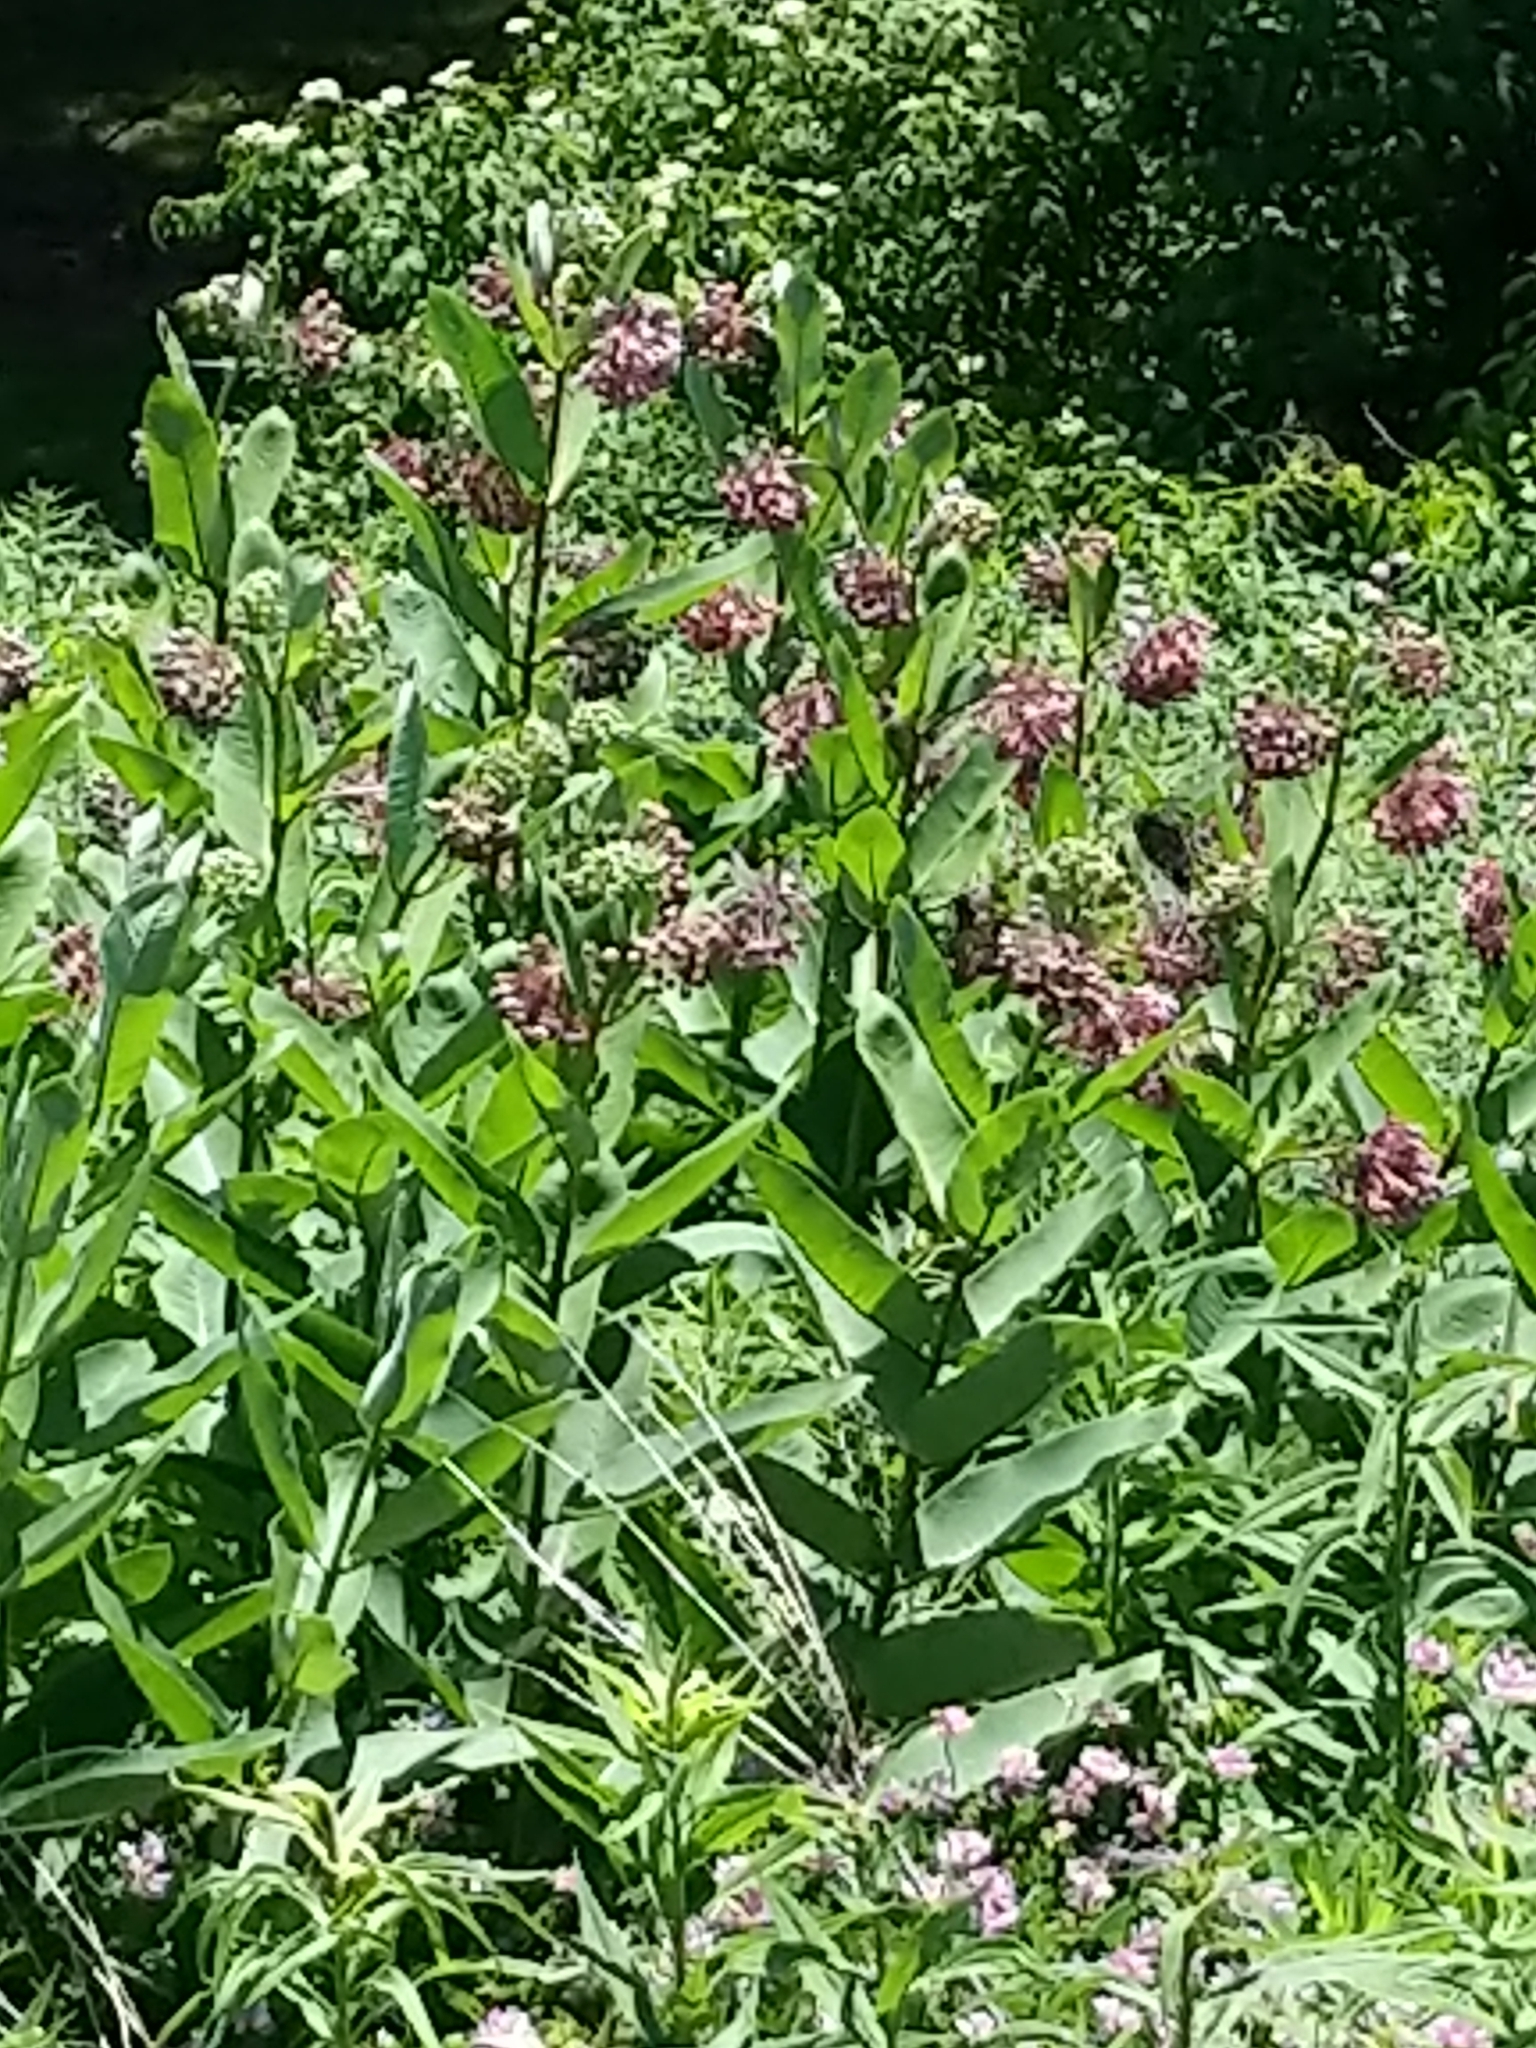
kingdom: Plantae
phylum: Tracheophyta
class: Magnoliopsida
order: Gentianales
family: Apocynaceae
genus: Asclepias
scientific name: Asclepias syriaca
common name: Common milkweed
